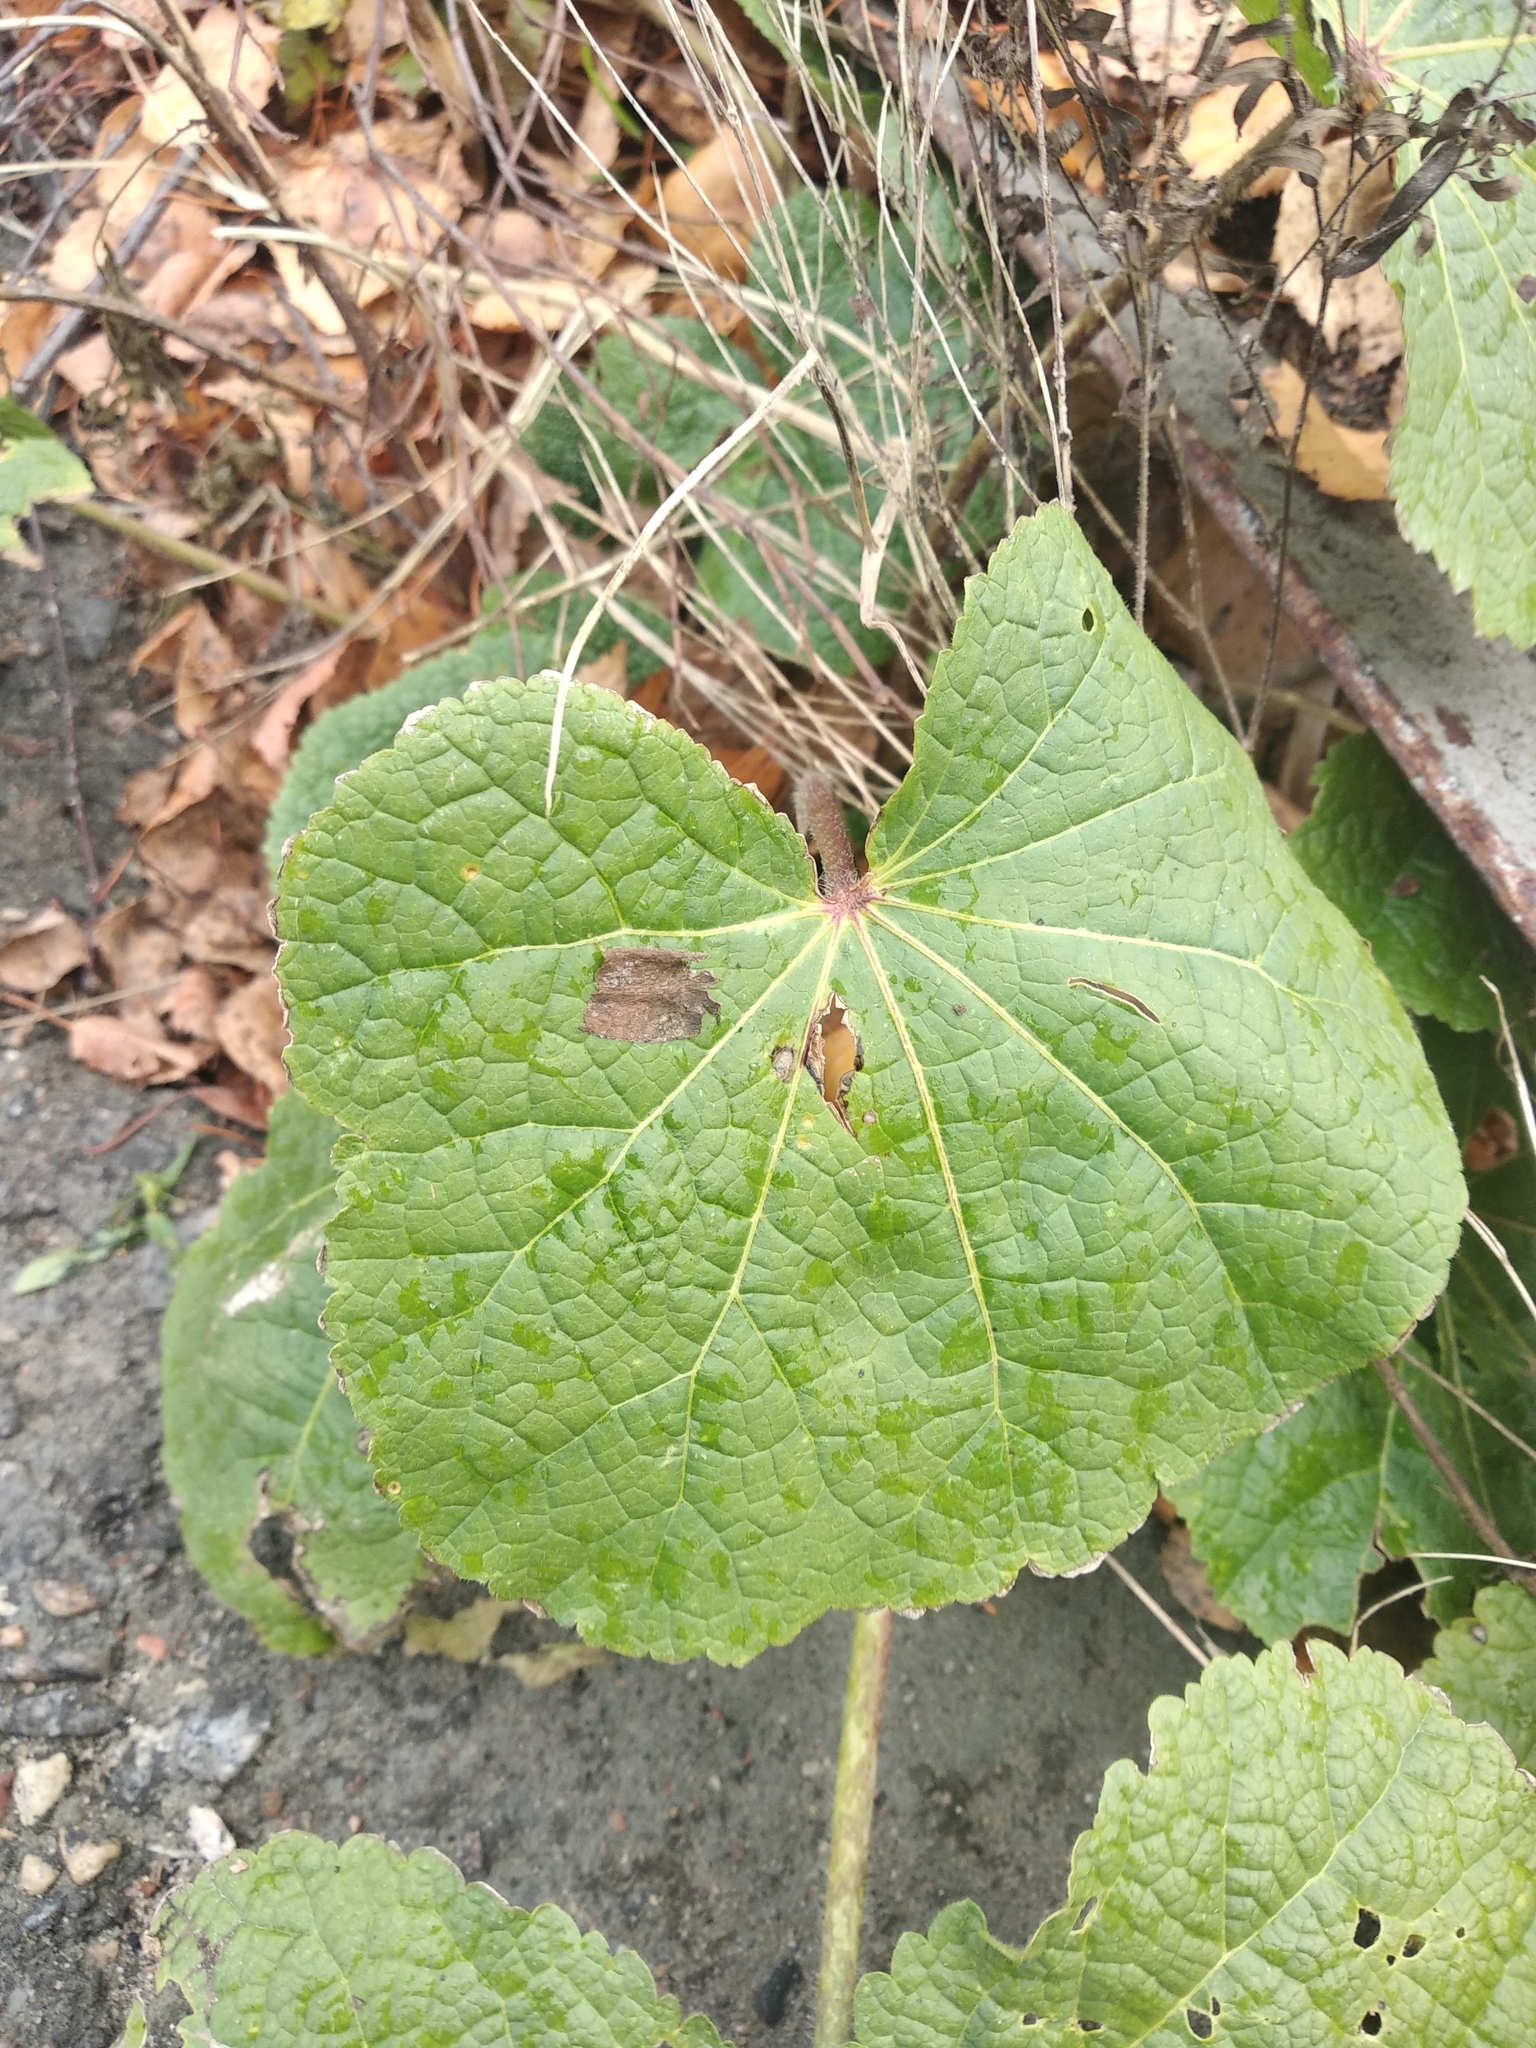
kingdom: Plantae
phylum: Tracheophyta
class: Magnoliopsida
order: Malvales
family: Malvaceae
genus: Alcea
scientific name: Alcea rosea
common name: Hollyhock
